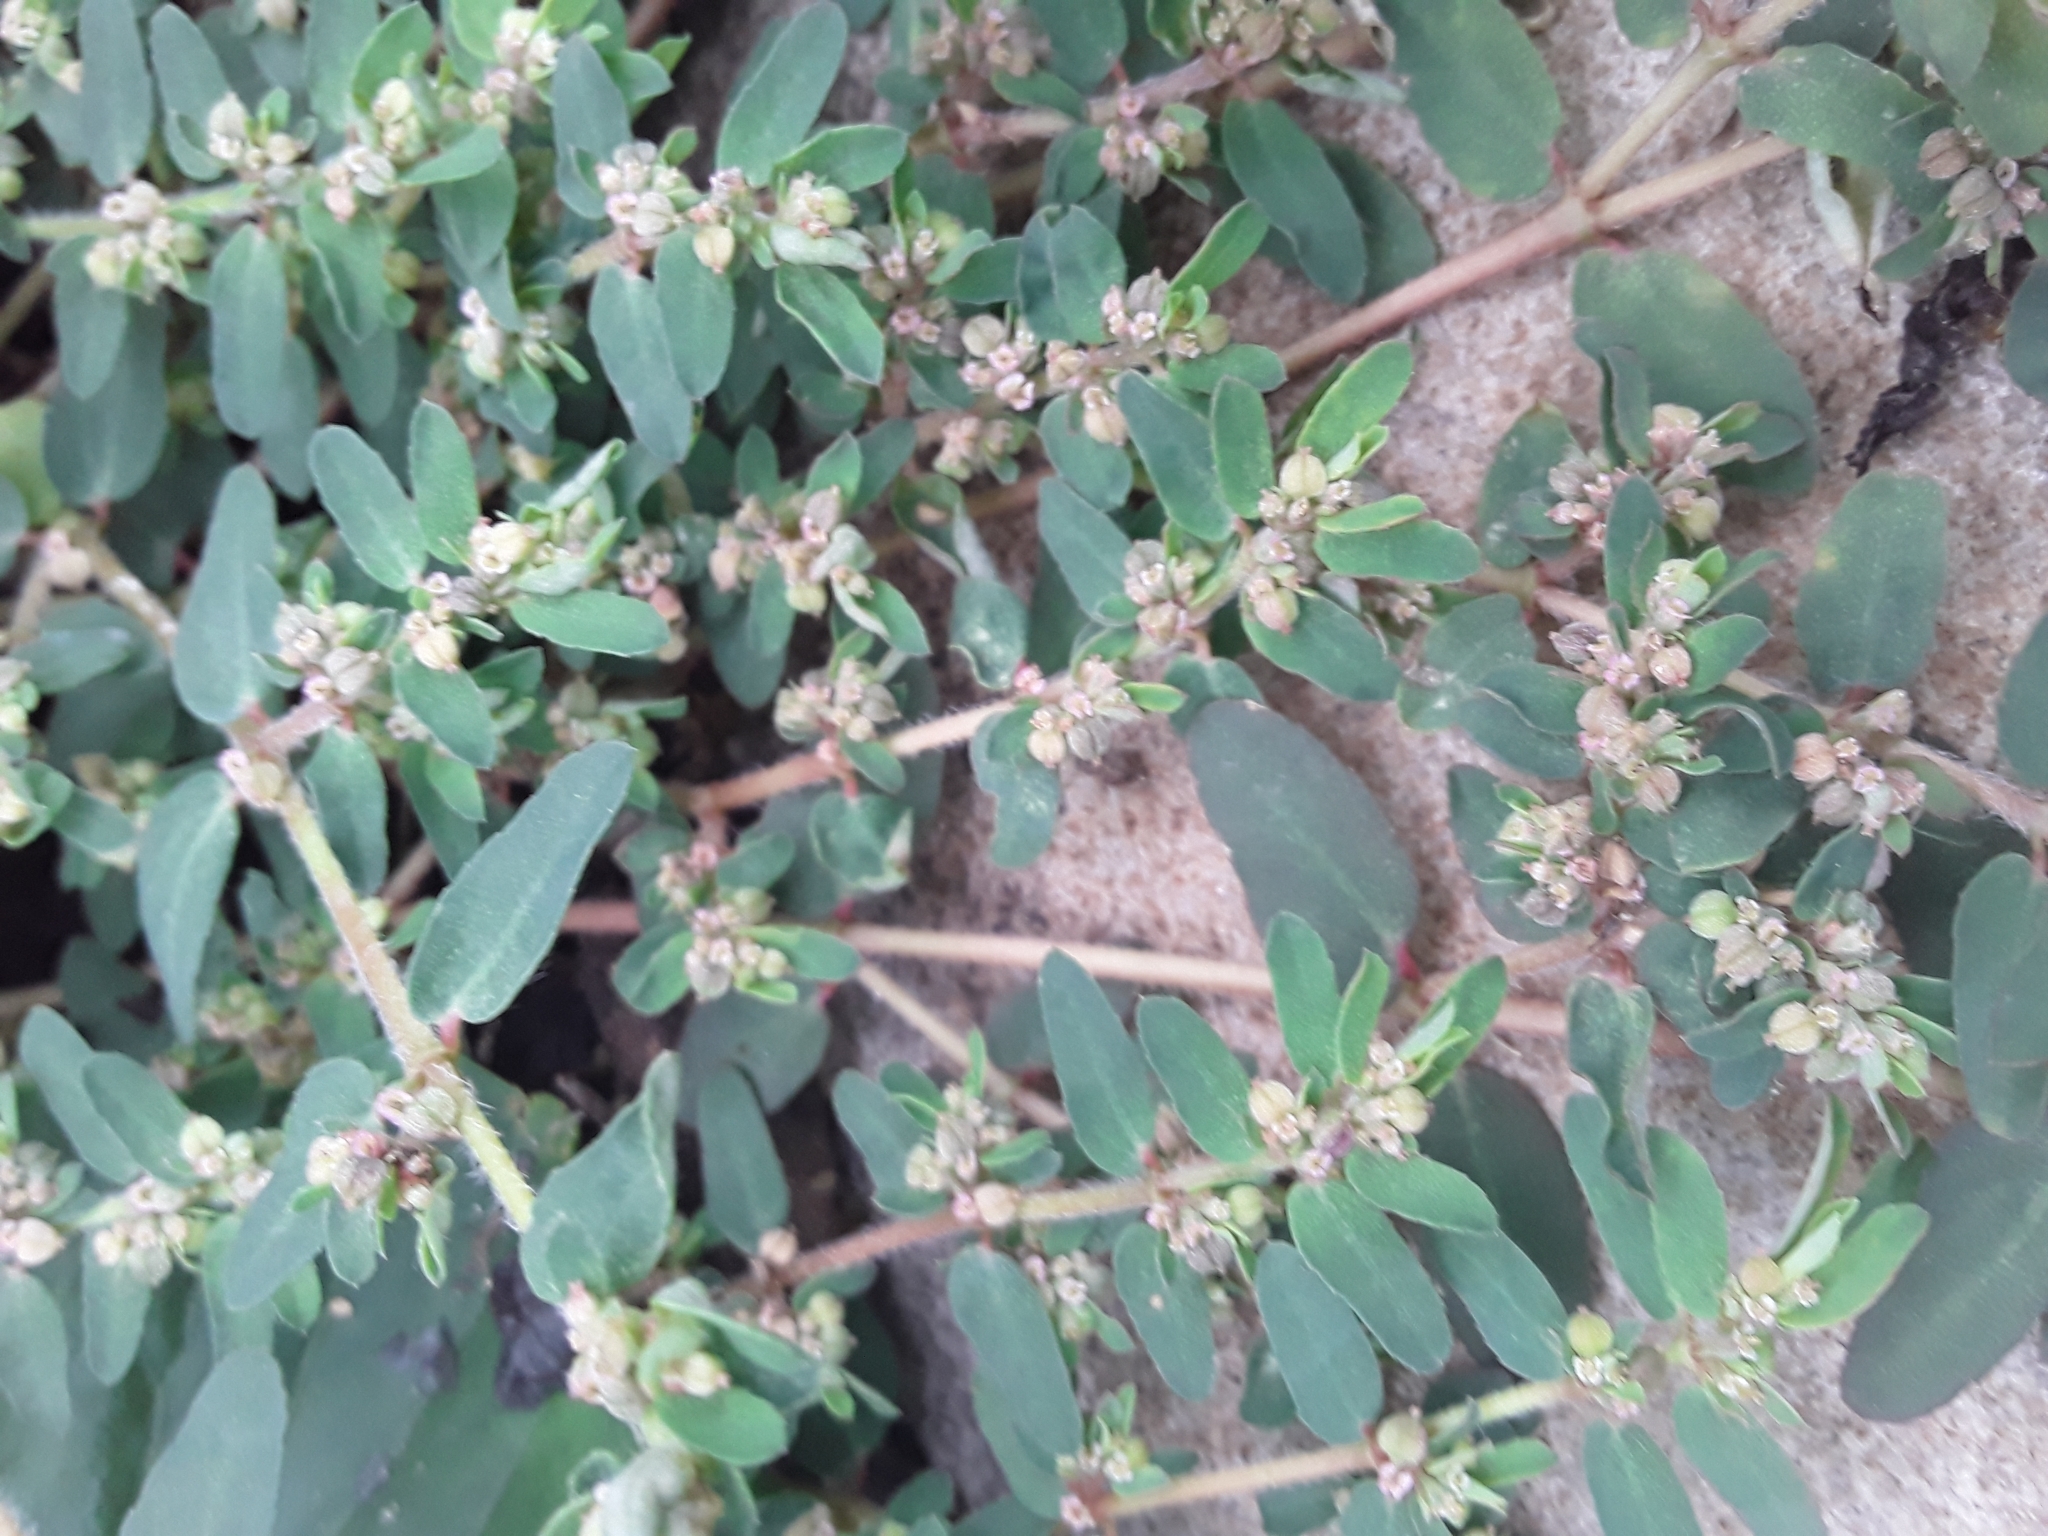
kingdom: Plantae
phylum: Tracheophyta
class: Magnoliopsida
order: Malpighiales
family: Euphorbiaceae
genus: Euphorbia
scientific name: Euphorbia maculata
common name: Spotted spurge
